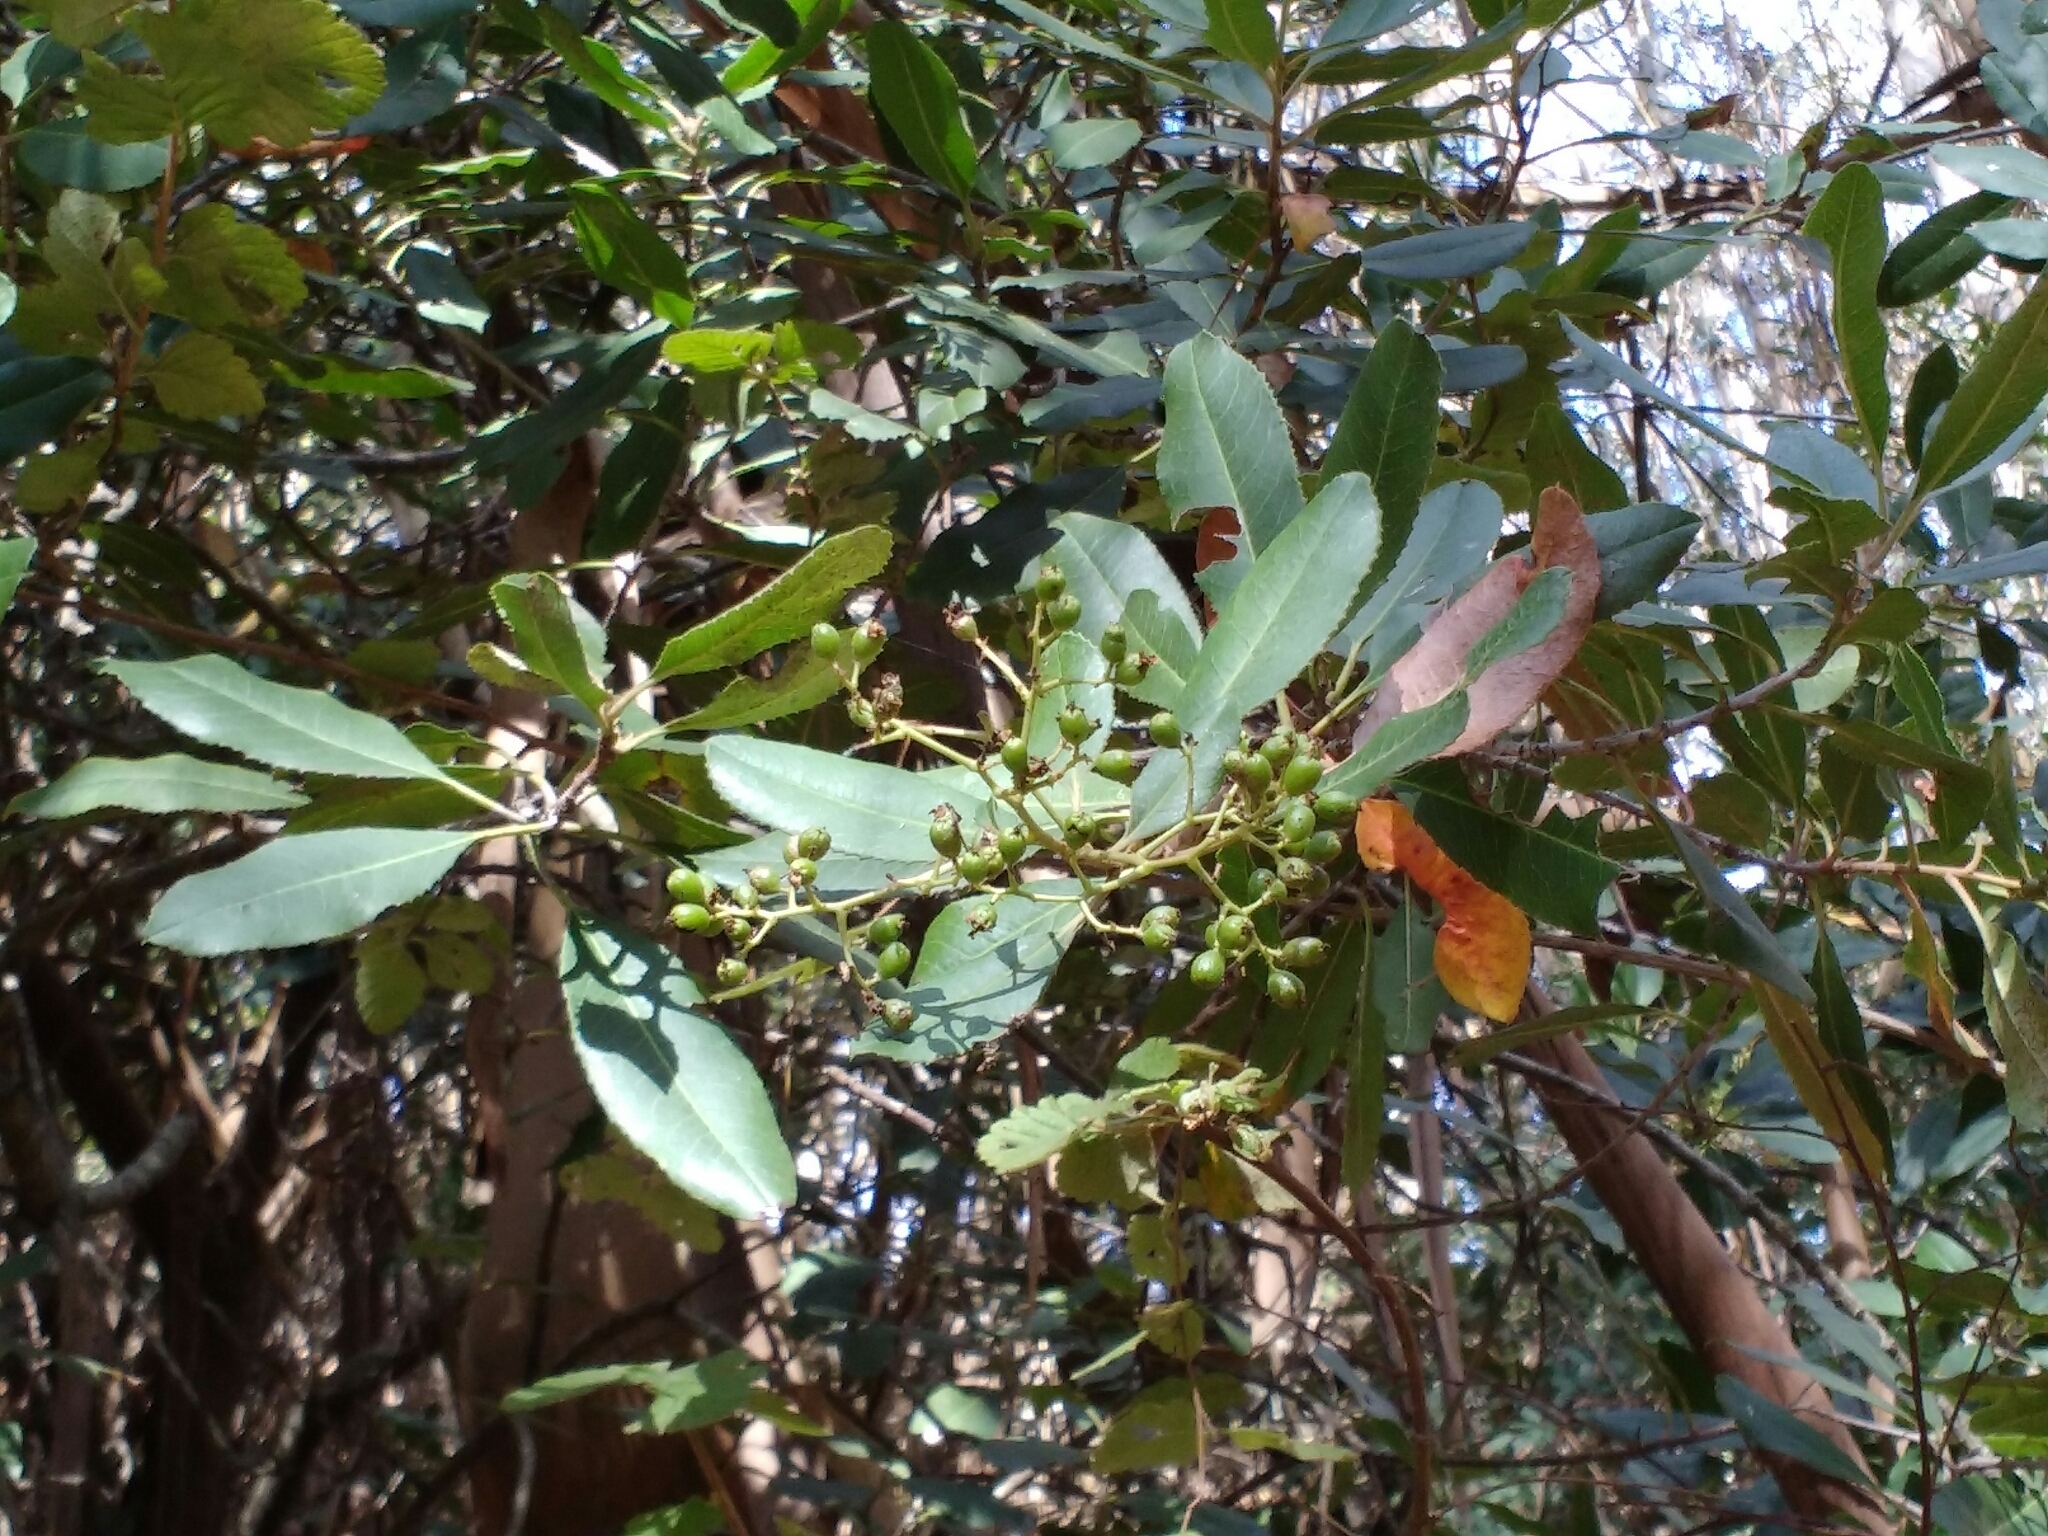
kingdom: Plantae
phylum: Tracheophyta
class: Magnoliopsida
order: Rosales
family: Rosaceae
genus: Heteromeles
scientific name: Heteromeles arbutifolia
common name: California-holly
